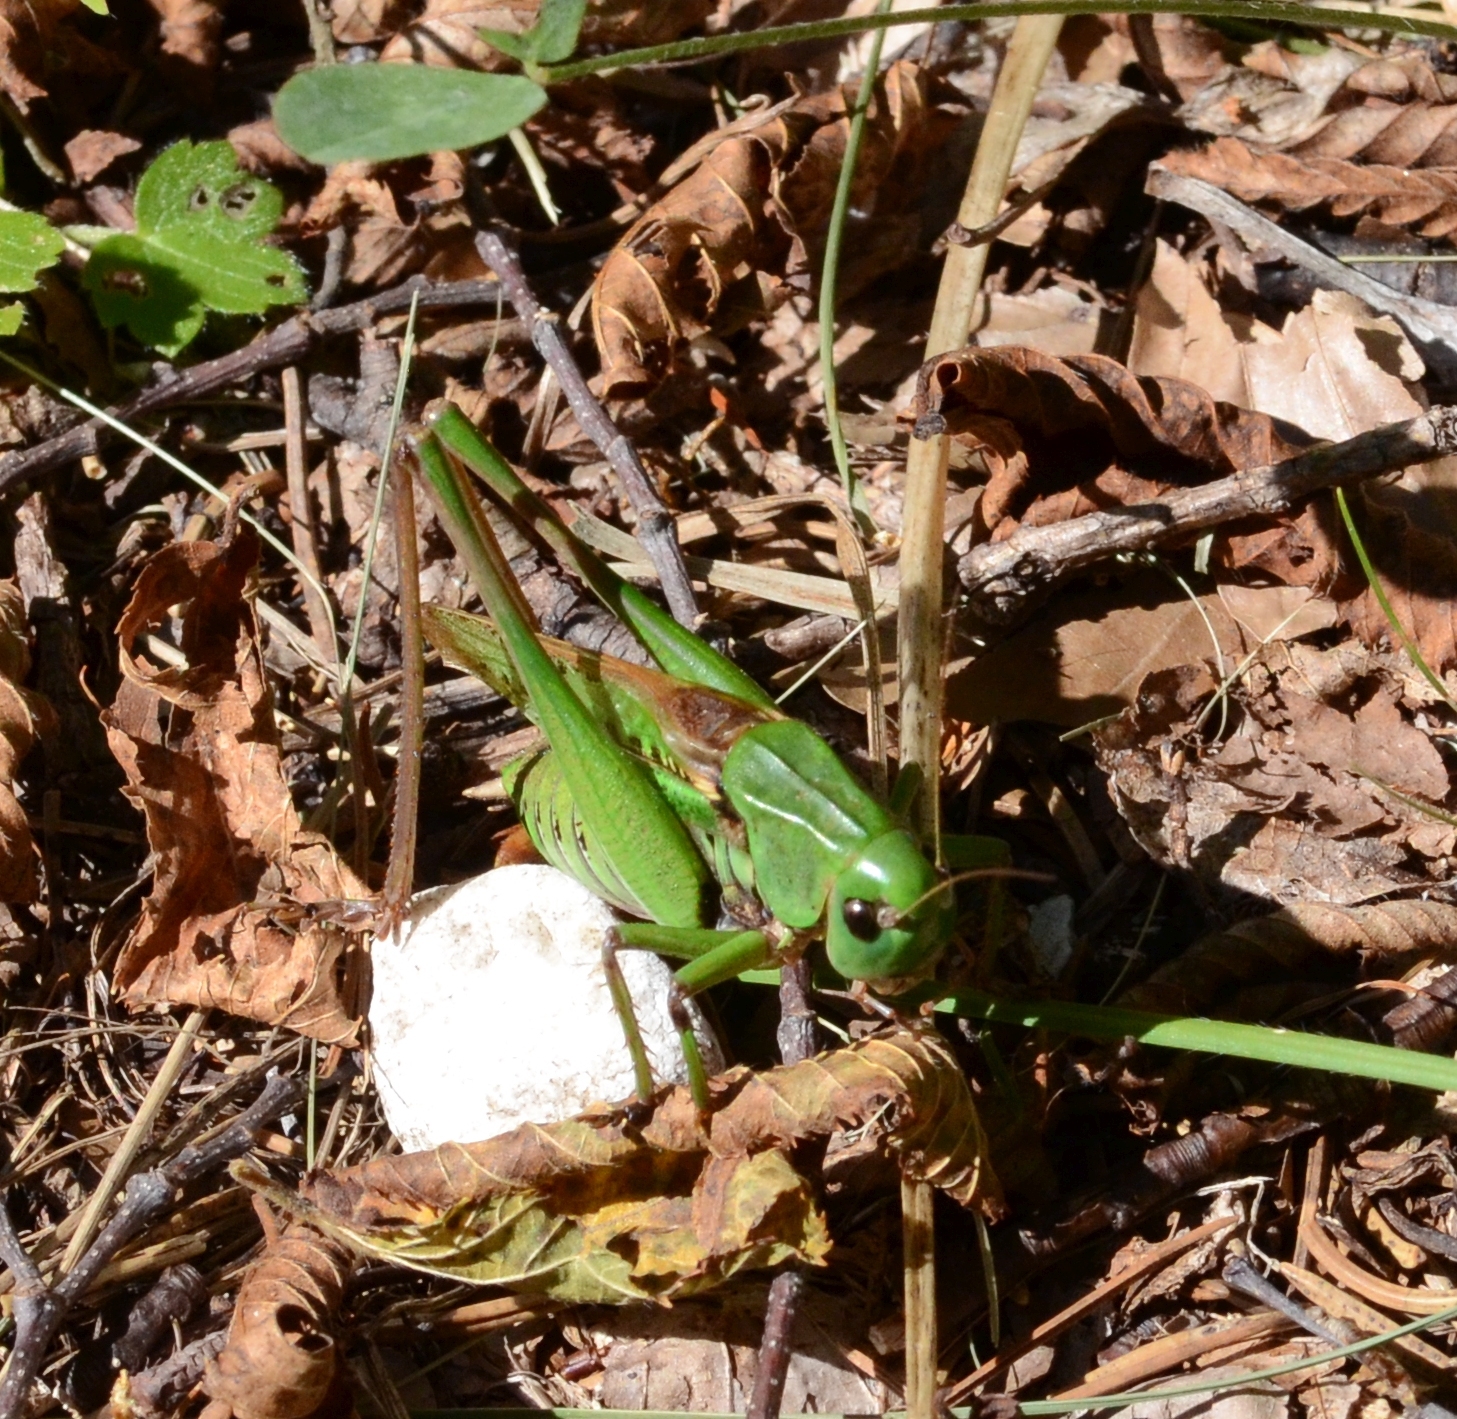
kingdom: Animalia
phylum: Arthropoda
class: Insecta
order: Orthoptera
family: Tettigoniidae
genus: Decticus
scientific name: Decticus verrucivorus
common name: Wart-biter
